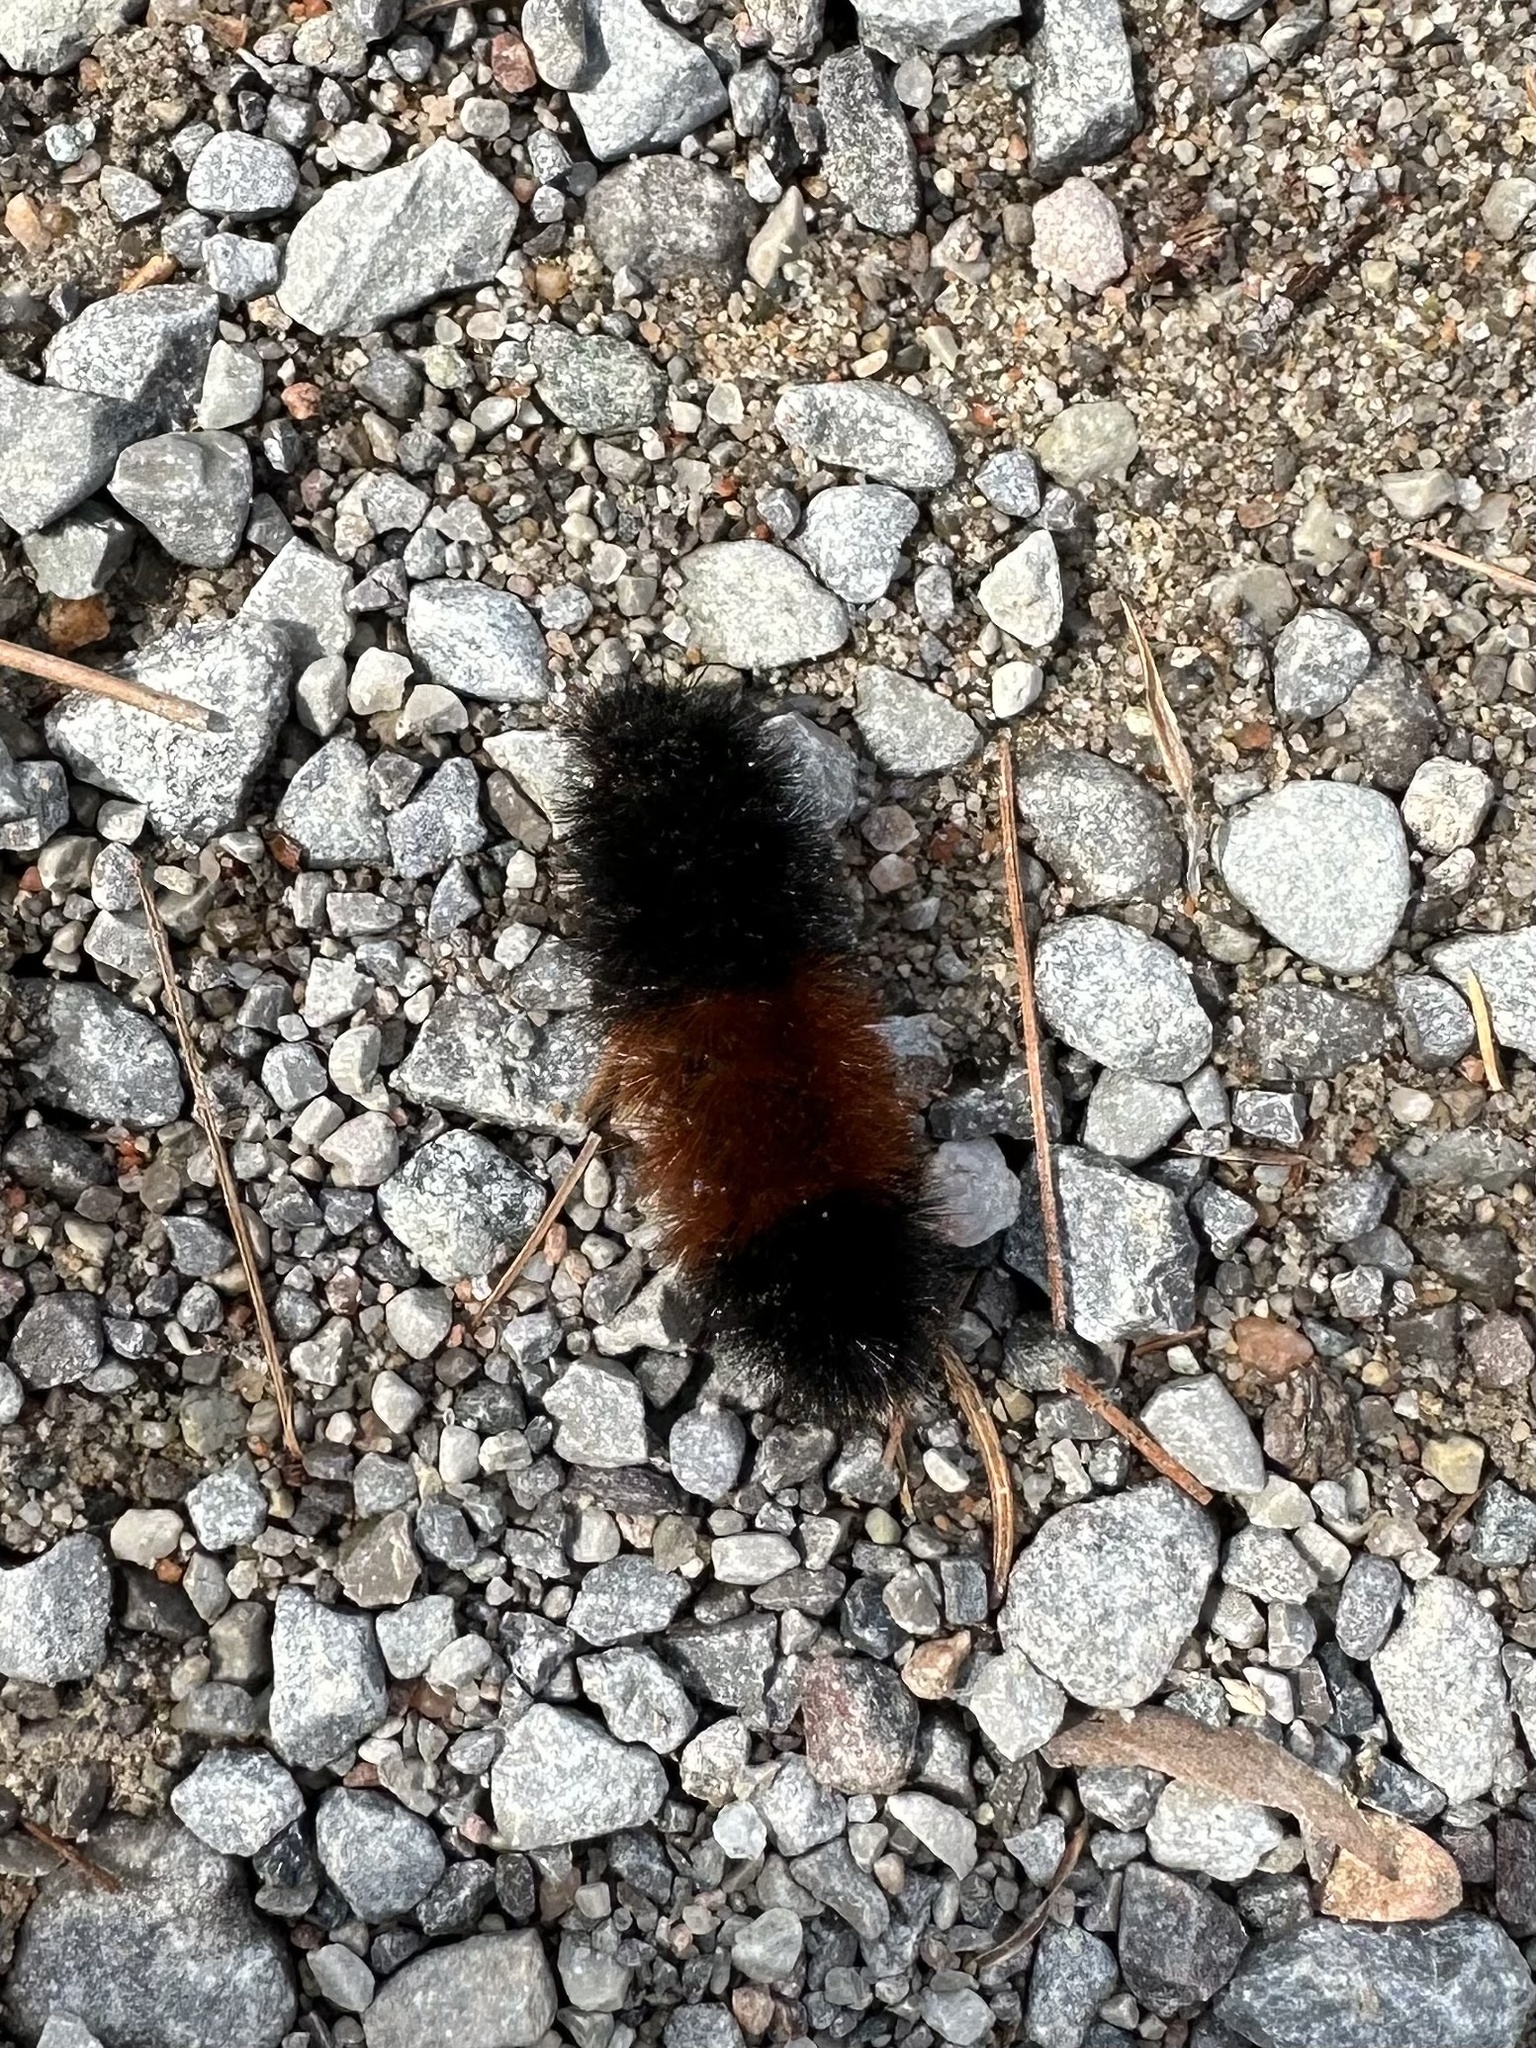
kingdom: Animalia
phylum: Arthropoda
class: Insecta
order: Lepidoptera
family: Erebidae
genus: Pyrrharctia
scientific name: Pyrrharctia isabella
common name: Isabella tiger moth
